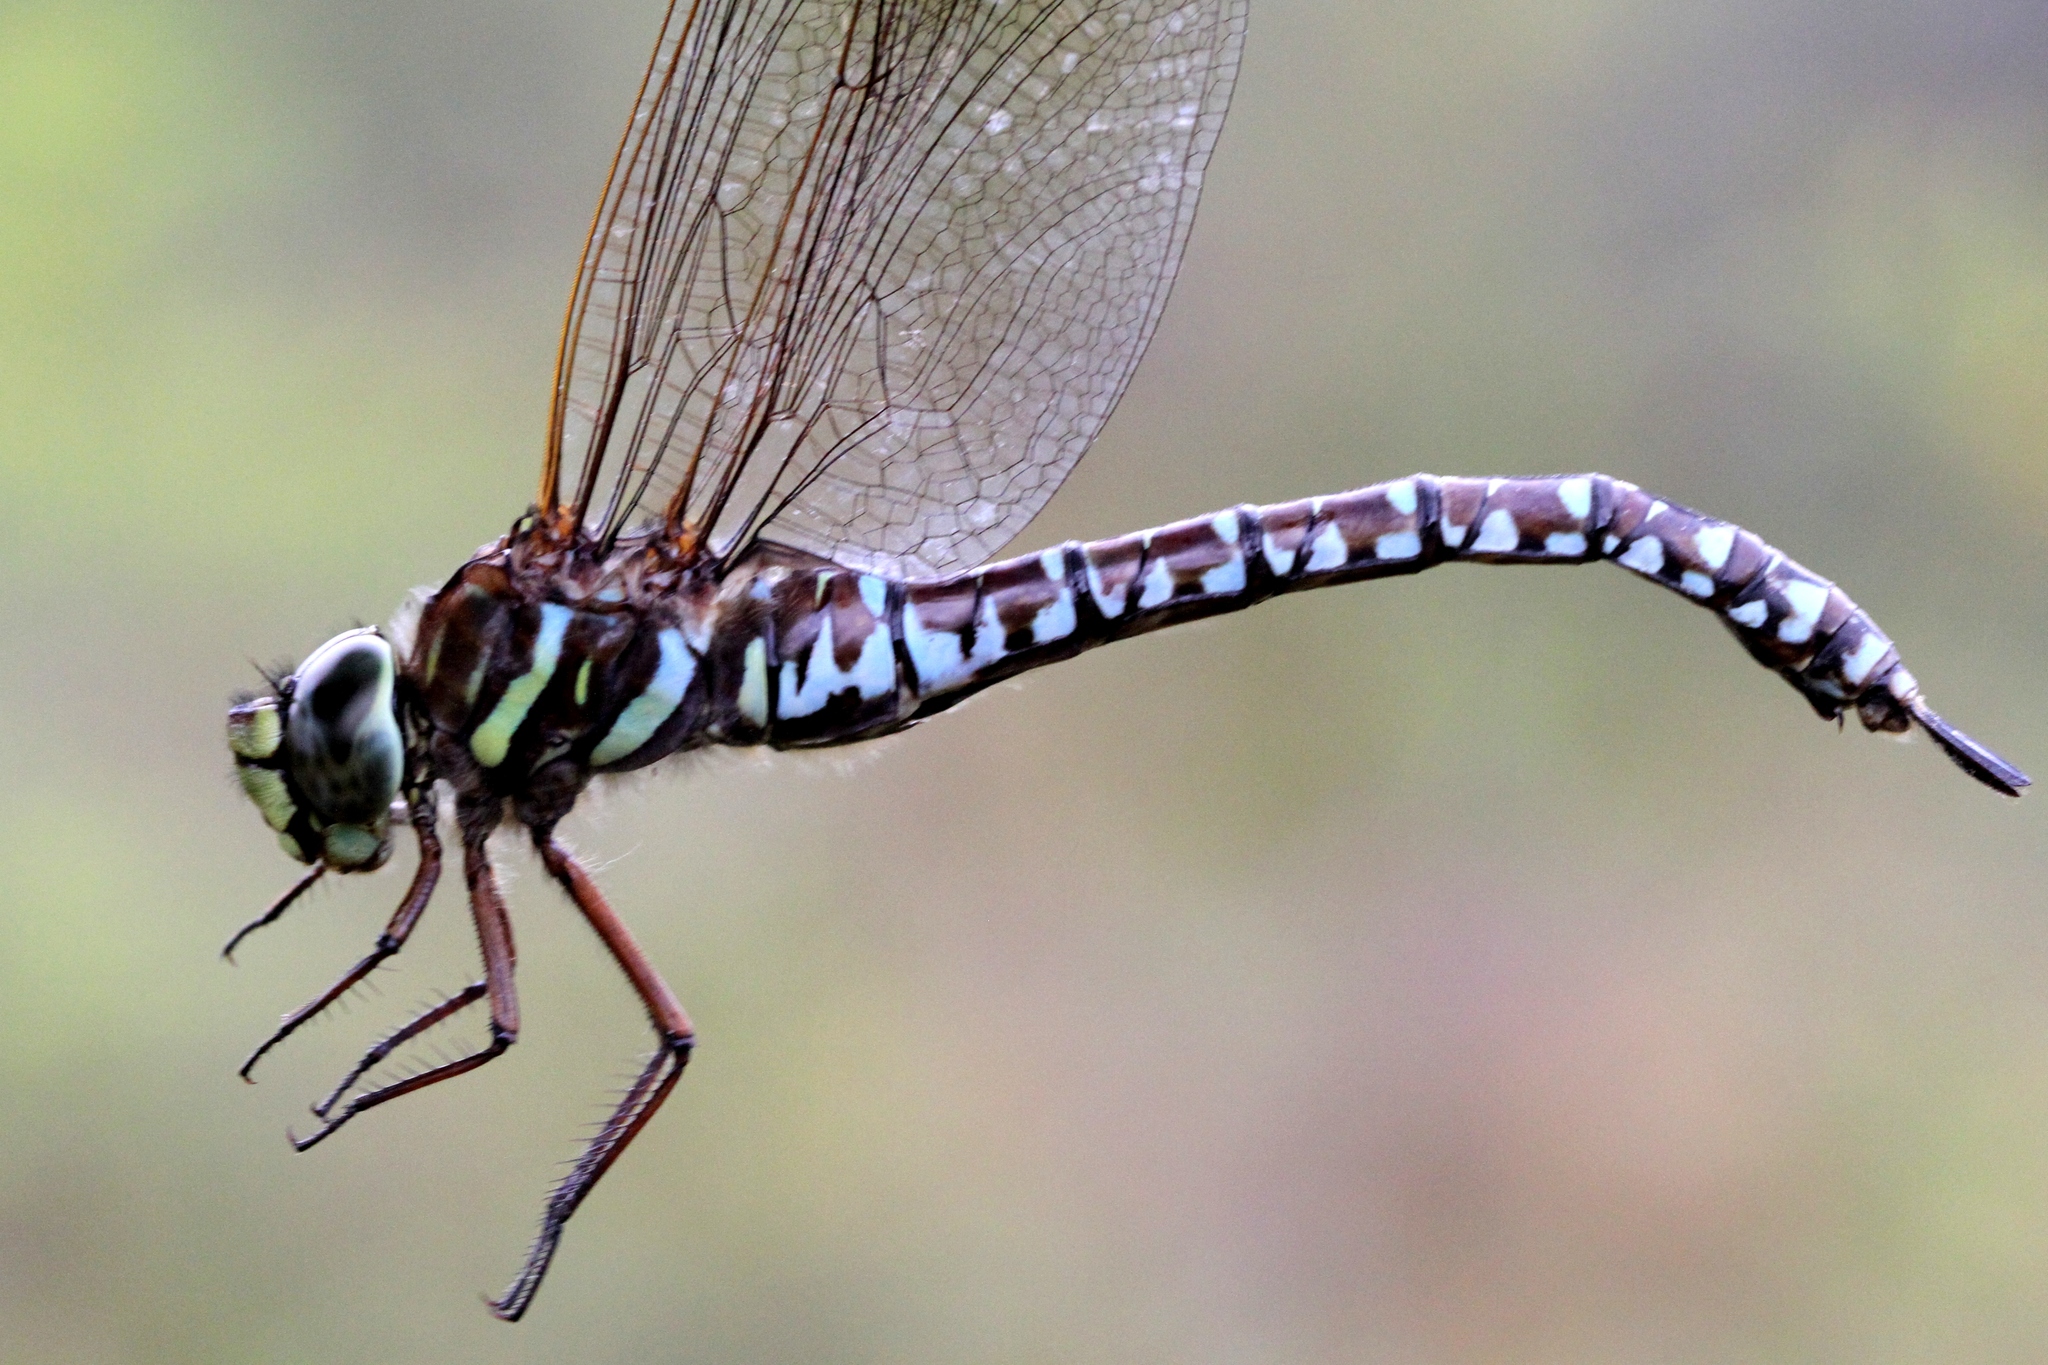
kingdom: Animalia
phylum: Arthropoda
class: Insecta
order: Odonata
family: Aeshnidae
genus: Aeshna
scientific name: Aeshna subarctica
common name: Subarctic darner
